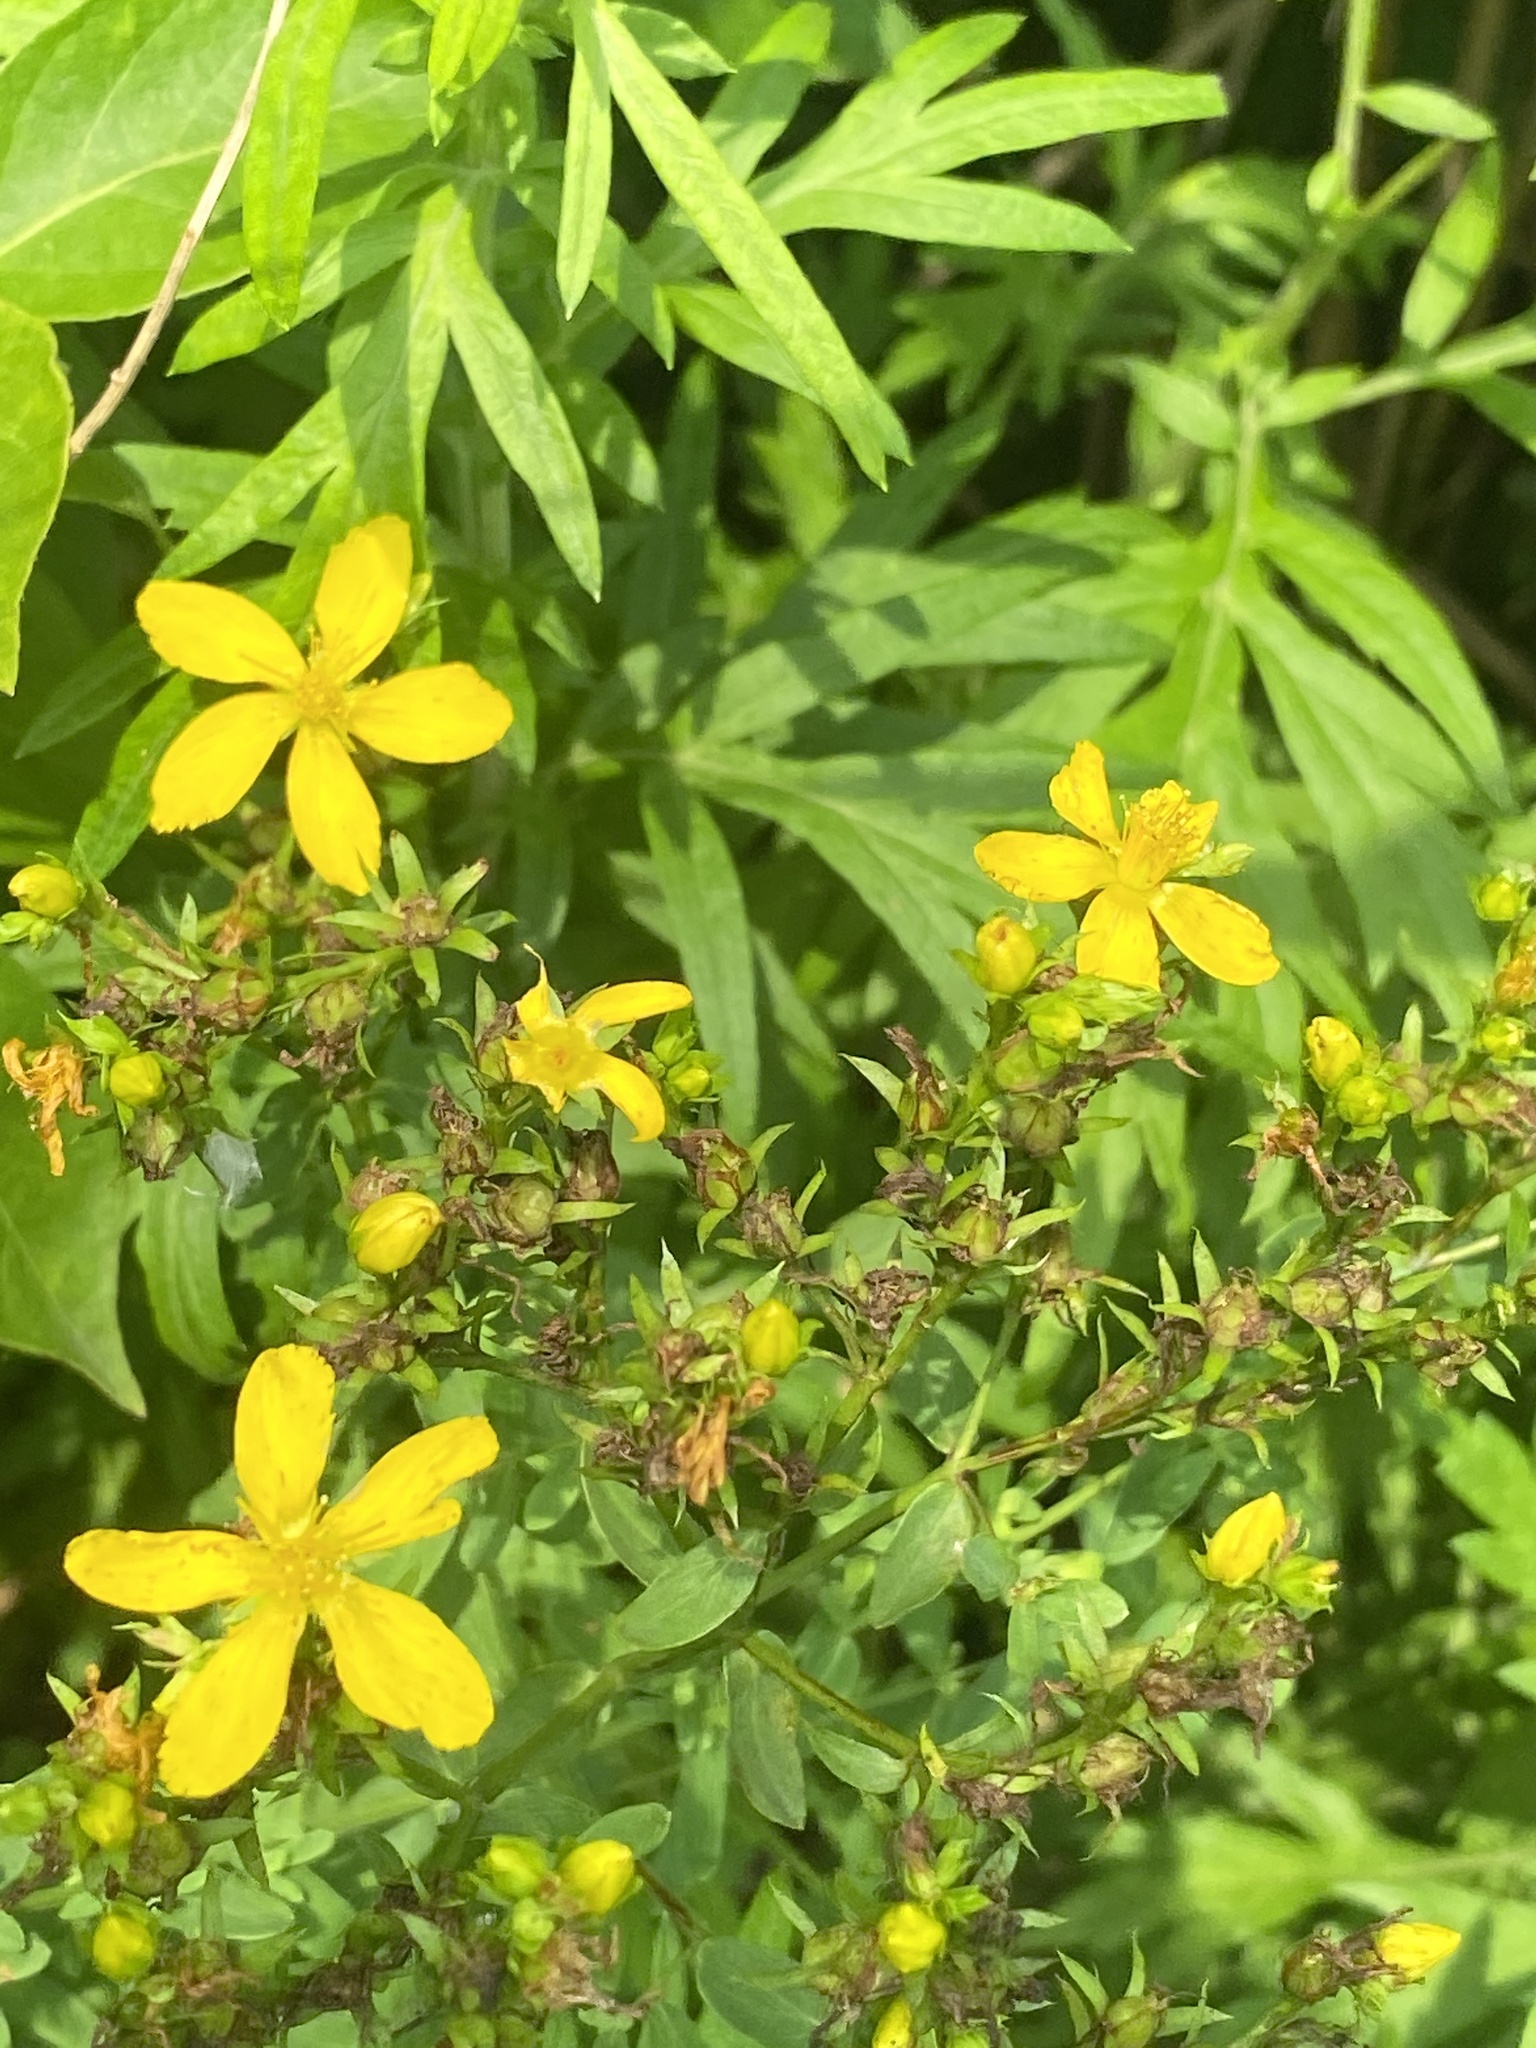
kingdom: Plantae
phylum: Tracheophyta
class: Magnoliopsida
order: Malpighiales
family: Hypericaceae
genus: Hypericum
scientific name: Hypericum perforatum
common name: Common st. johnswort
